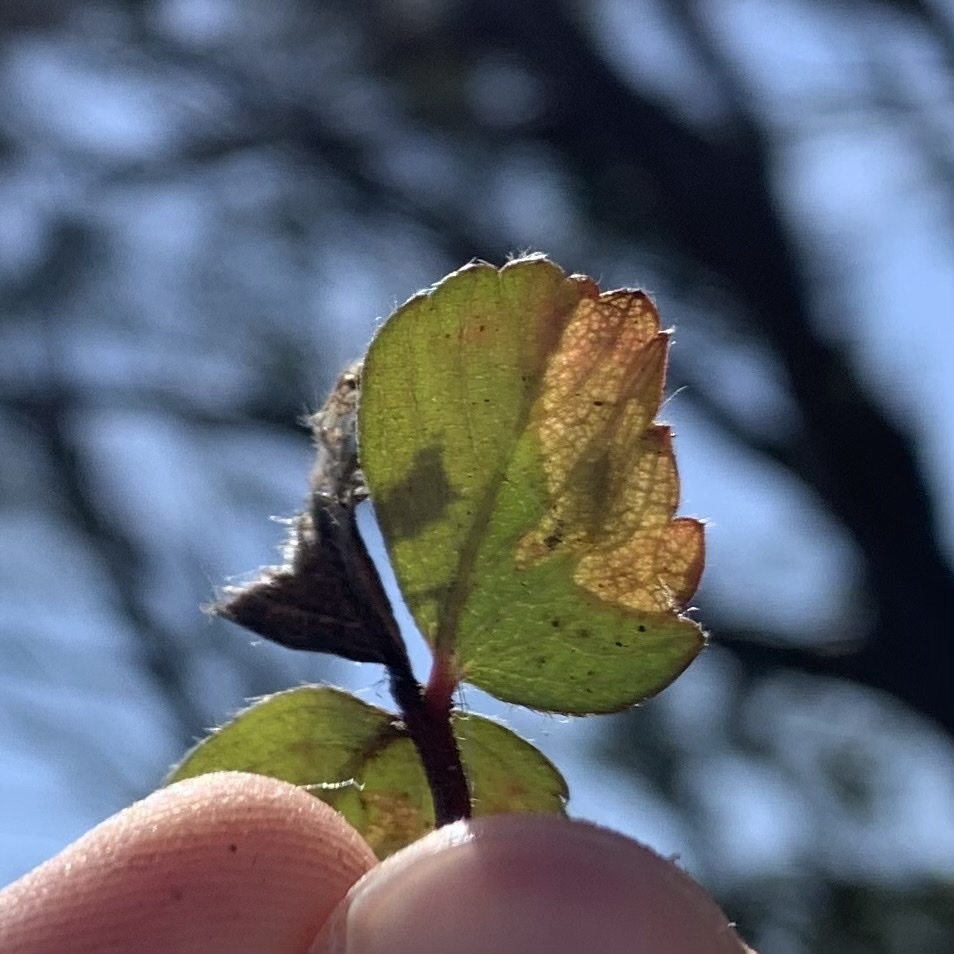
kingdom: Animalia
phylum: Arthropoda
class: Insecta
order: Lepidoptera
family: Tischeriidae
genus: Coptotriche
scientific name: Coptotriche confusa
